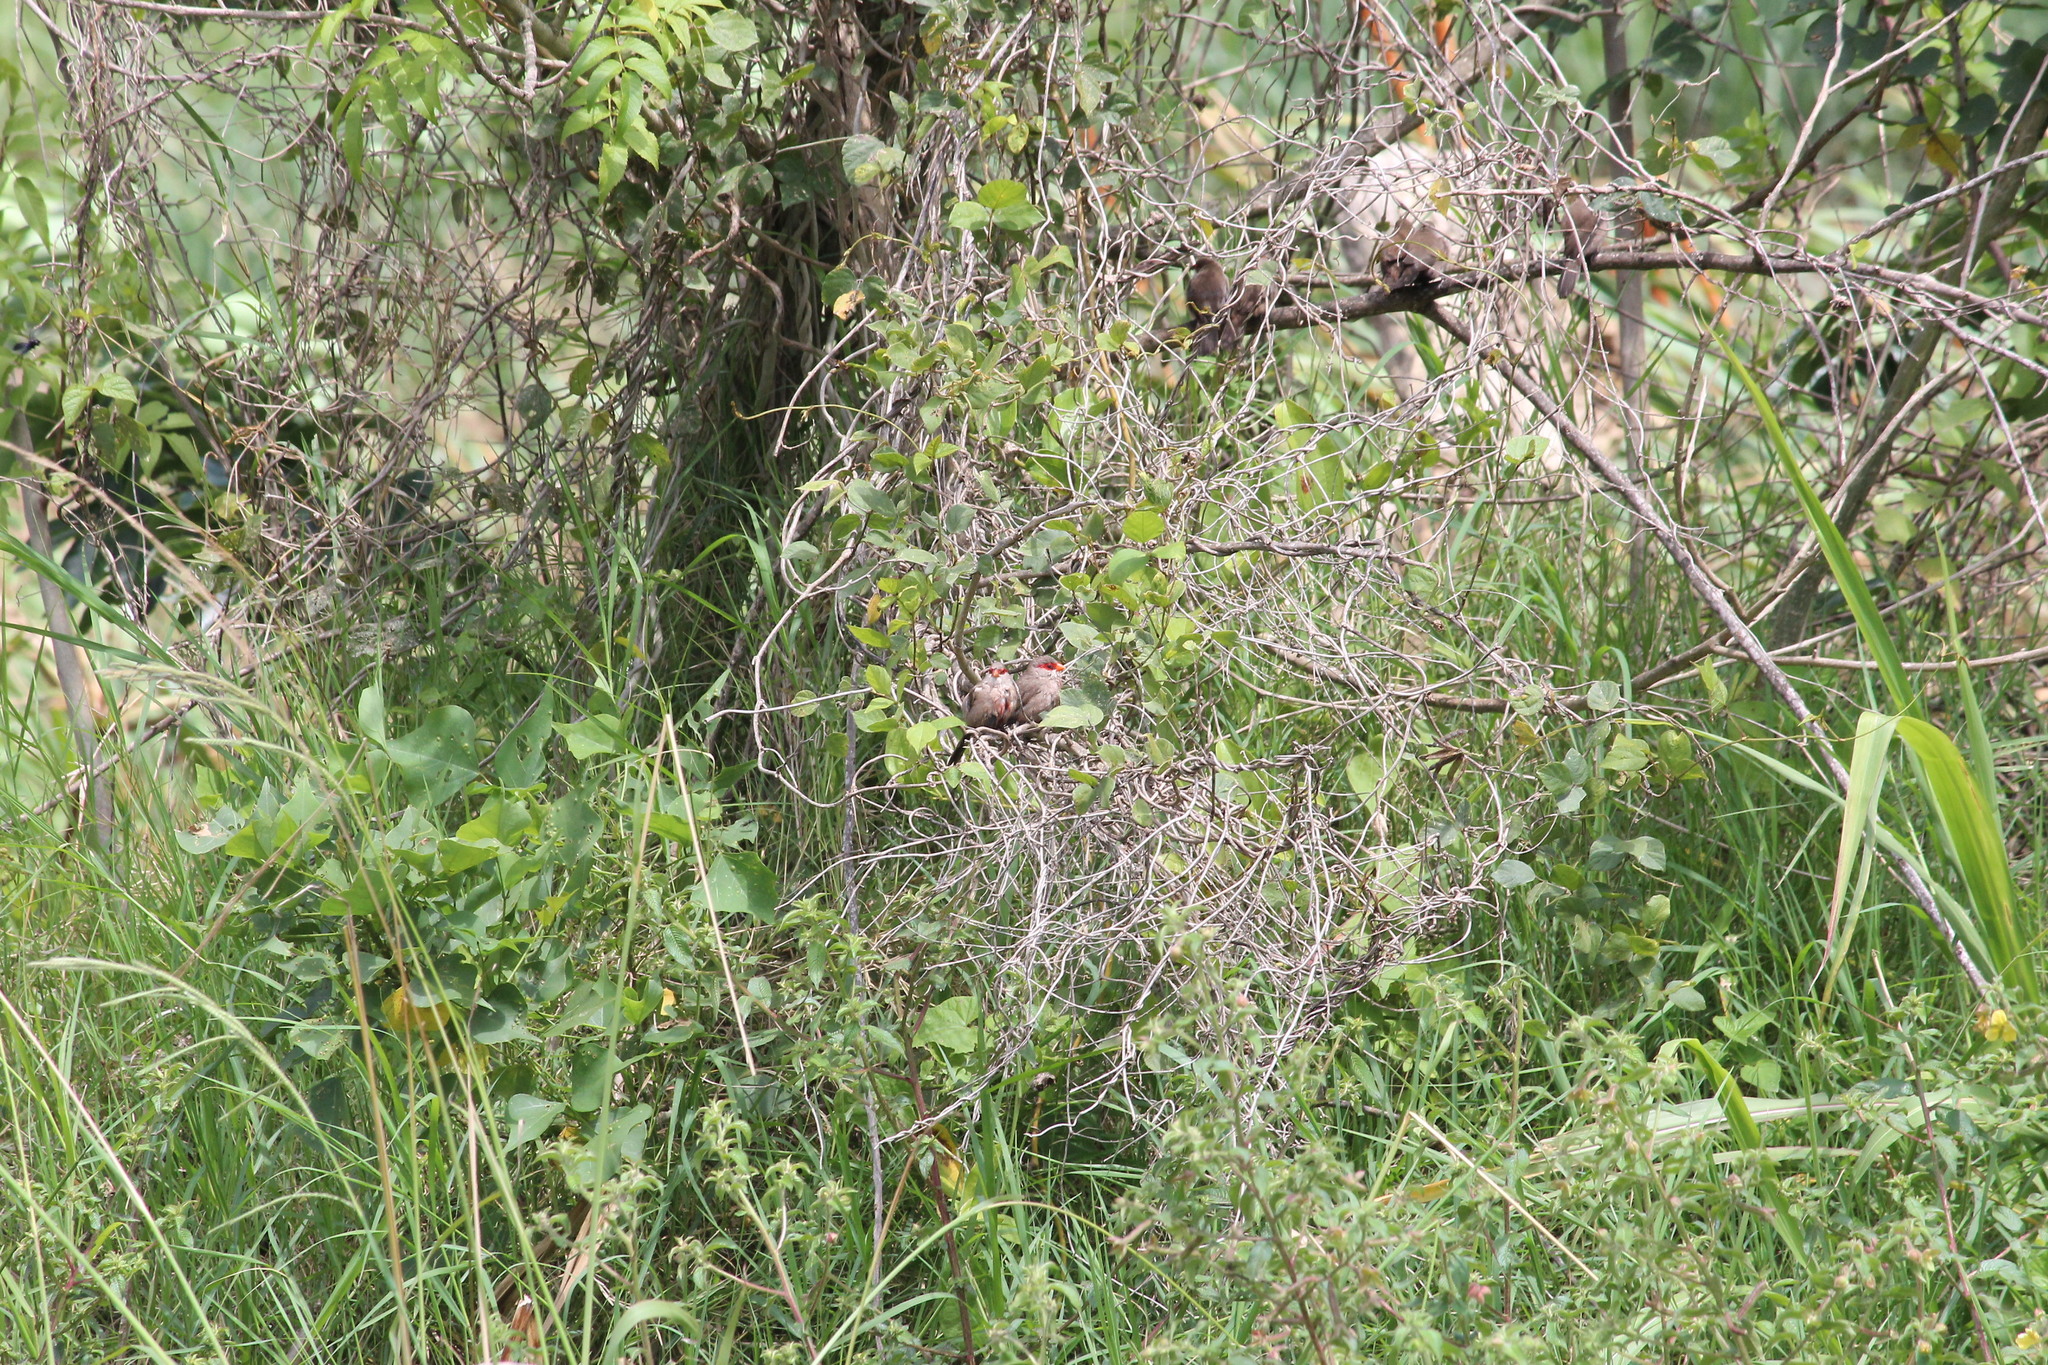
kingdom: Animalia
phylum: Chordata
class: Aves
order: Passeriformes
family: Estrildidae
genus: Estrilda
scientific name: Estrilda astrild
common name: Common waxbill
